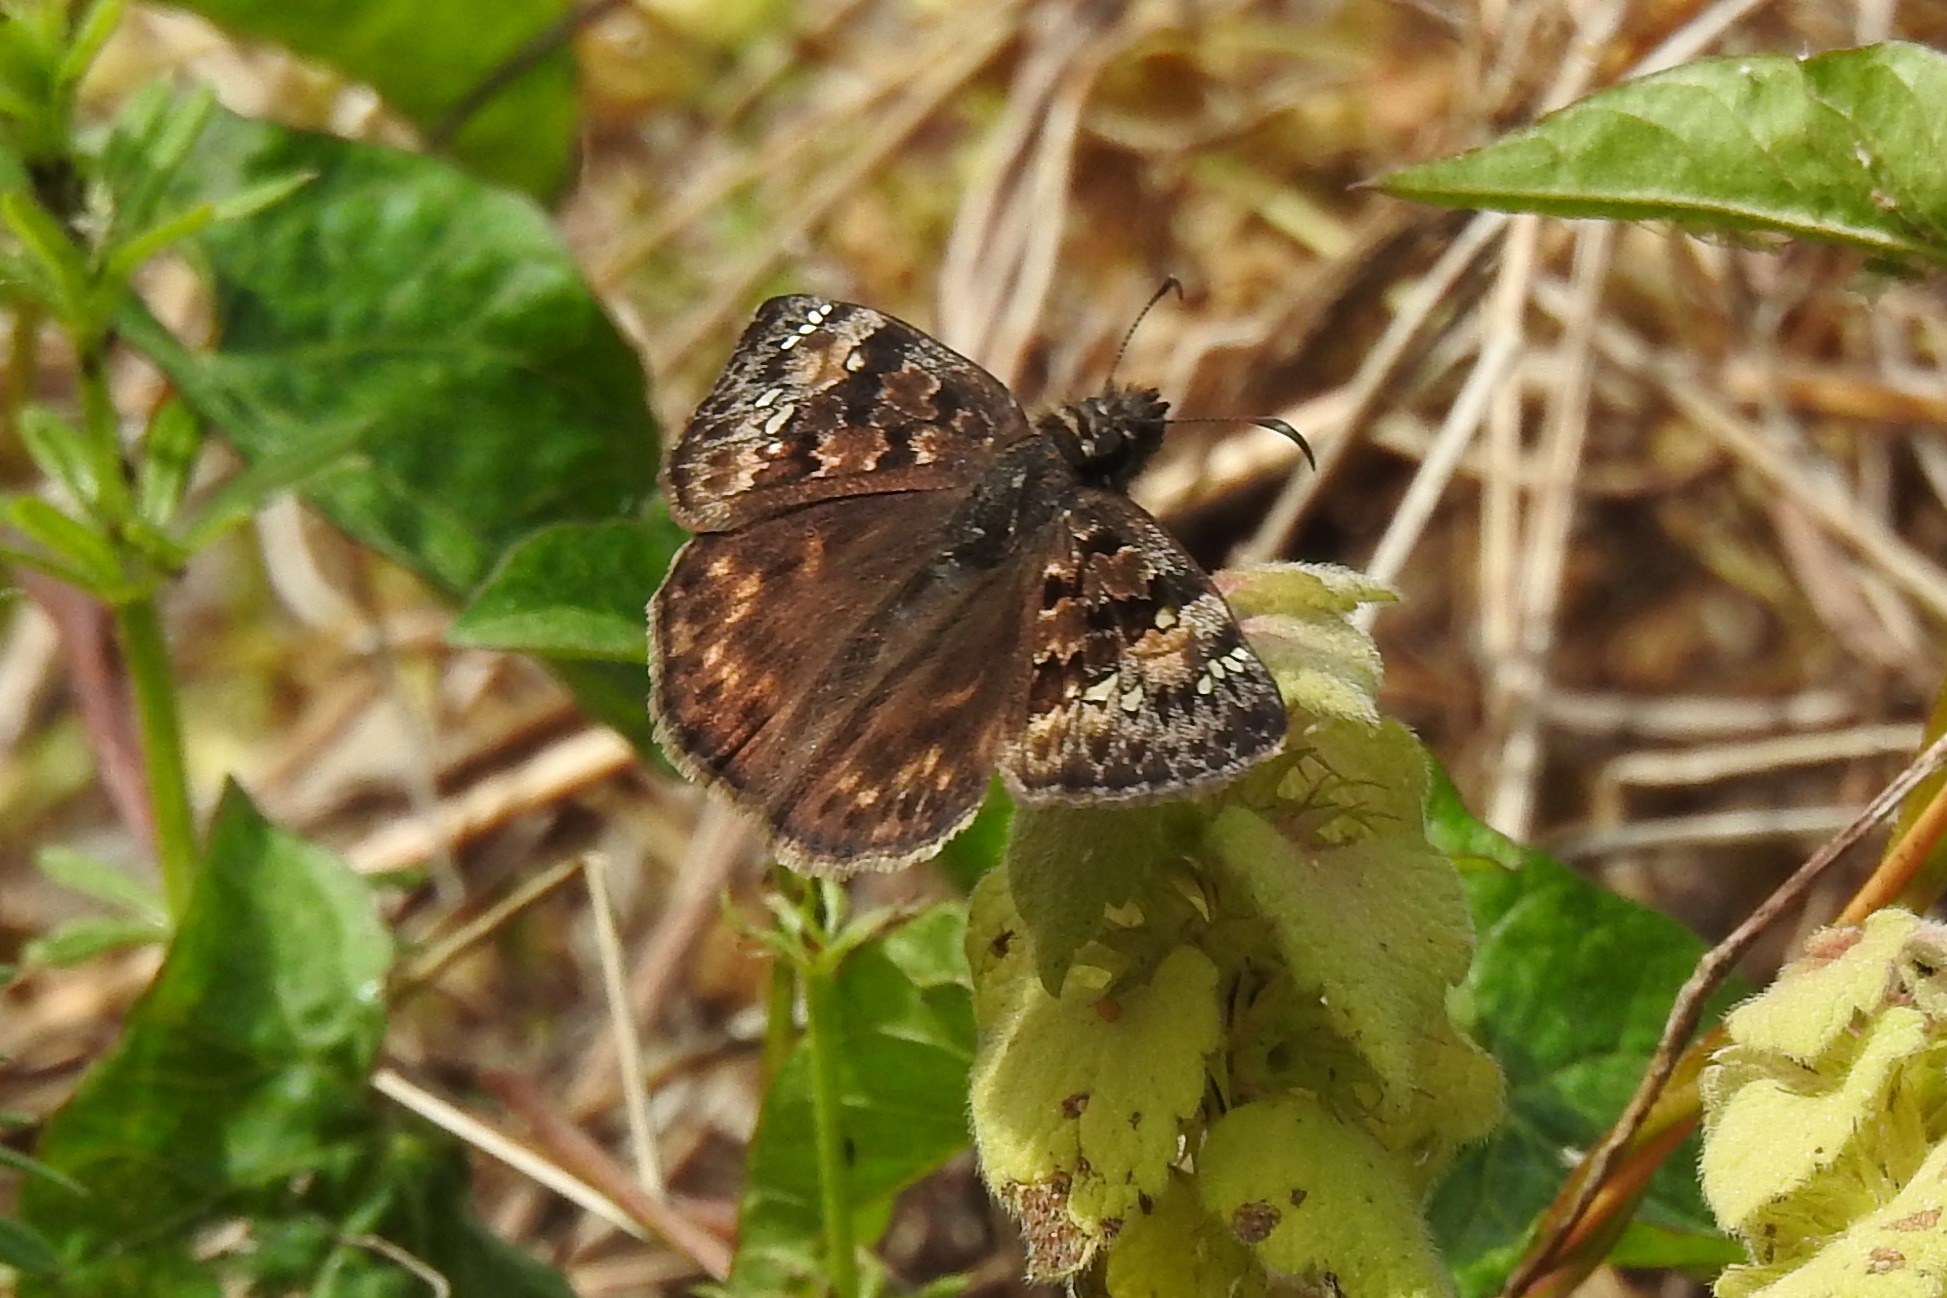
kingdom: Animalia
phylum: Arthropoda
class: Insecta
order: Lepidoptera
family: Hesperiidae
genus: Erynnis
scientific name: Erynnis juvenalis
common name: Juvenal's duskywing
